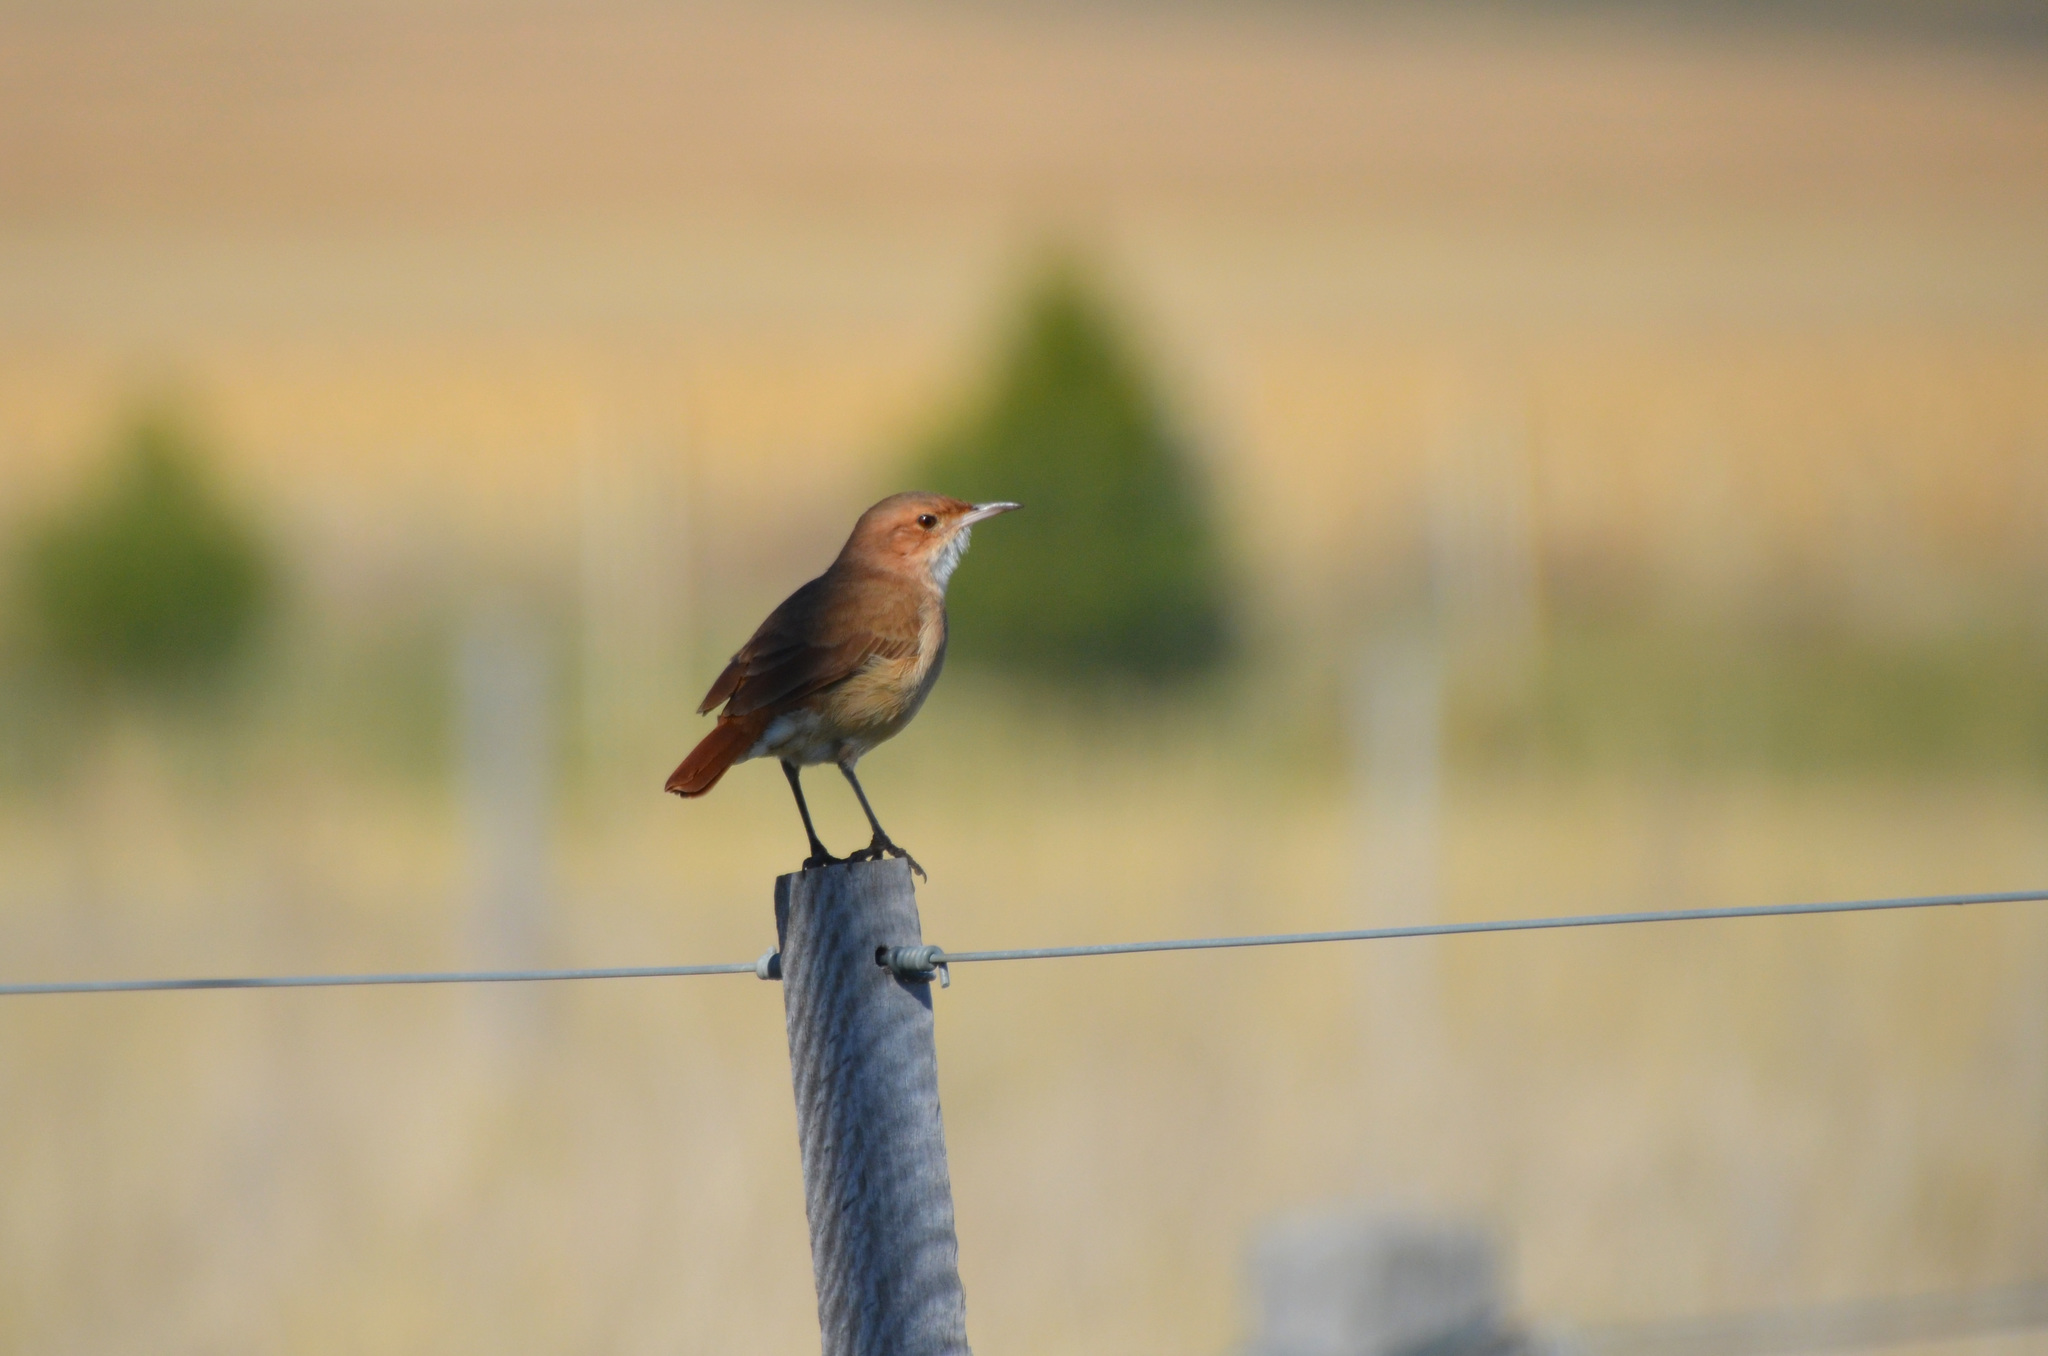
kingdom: Animalia
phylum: Chordata
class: Aves
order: Passeriformes
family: Furnariidae
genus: Furnarius
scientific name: Furnarius rufus
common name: Rufous hornero
